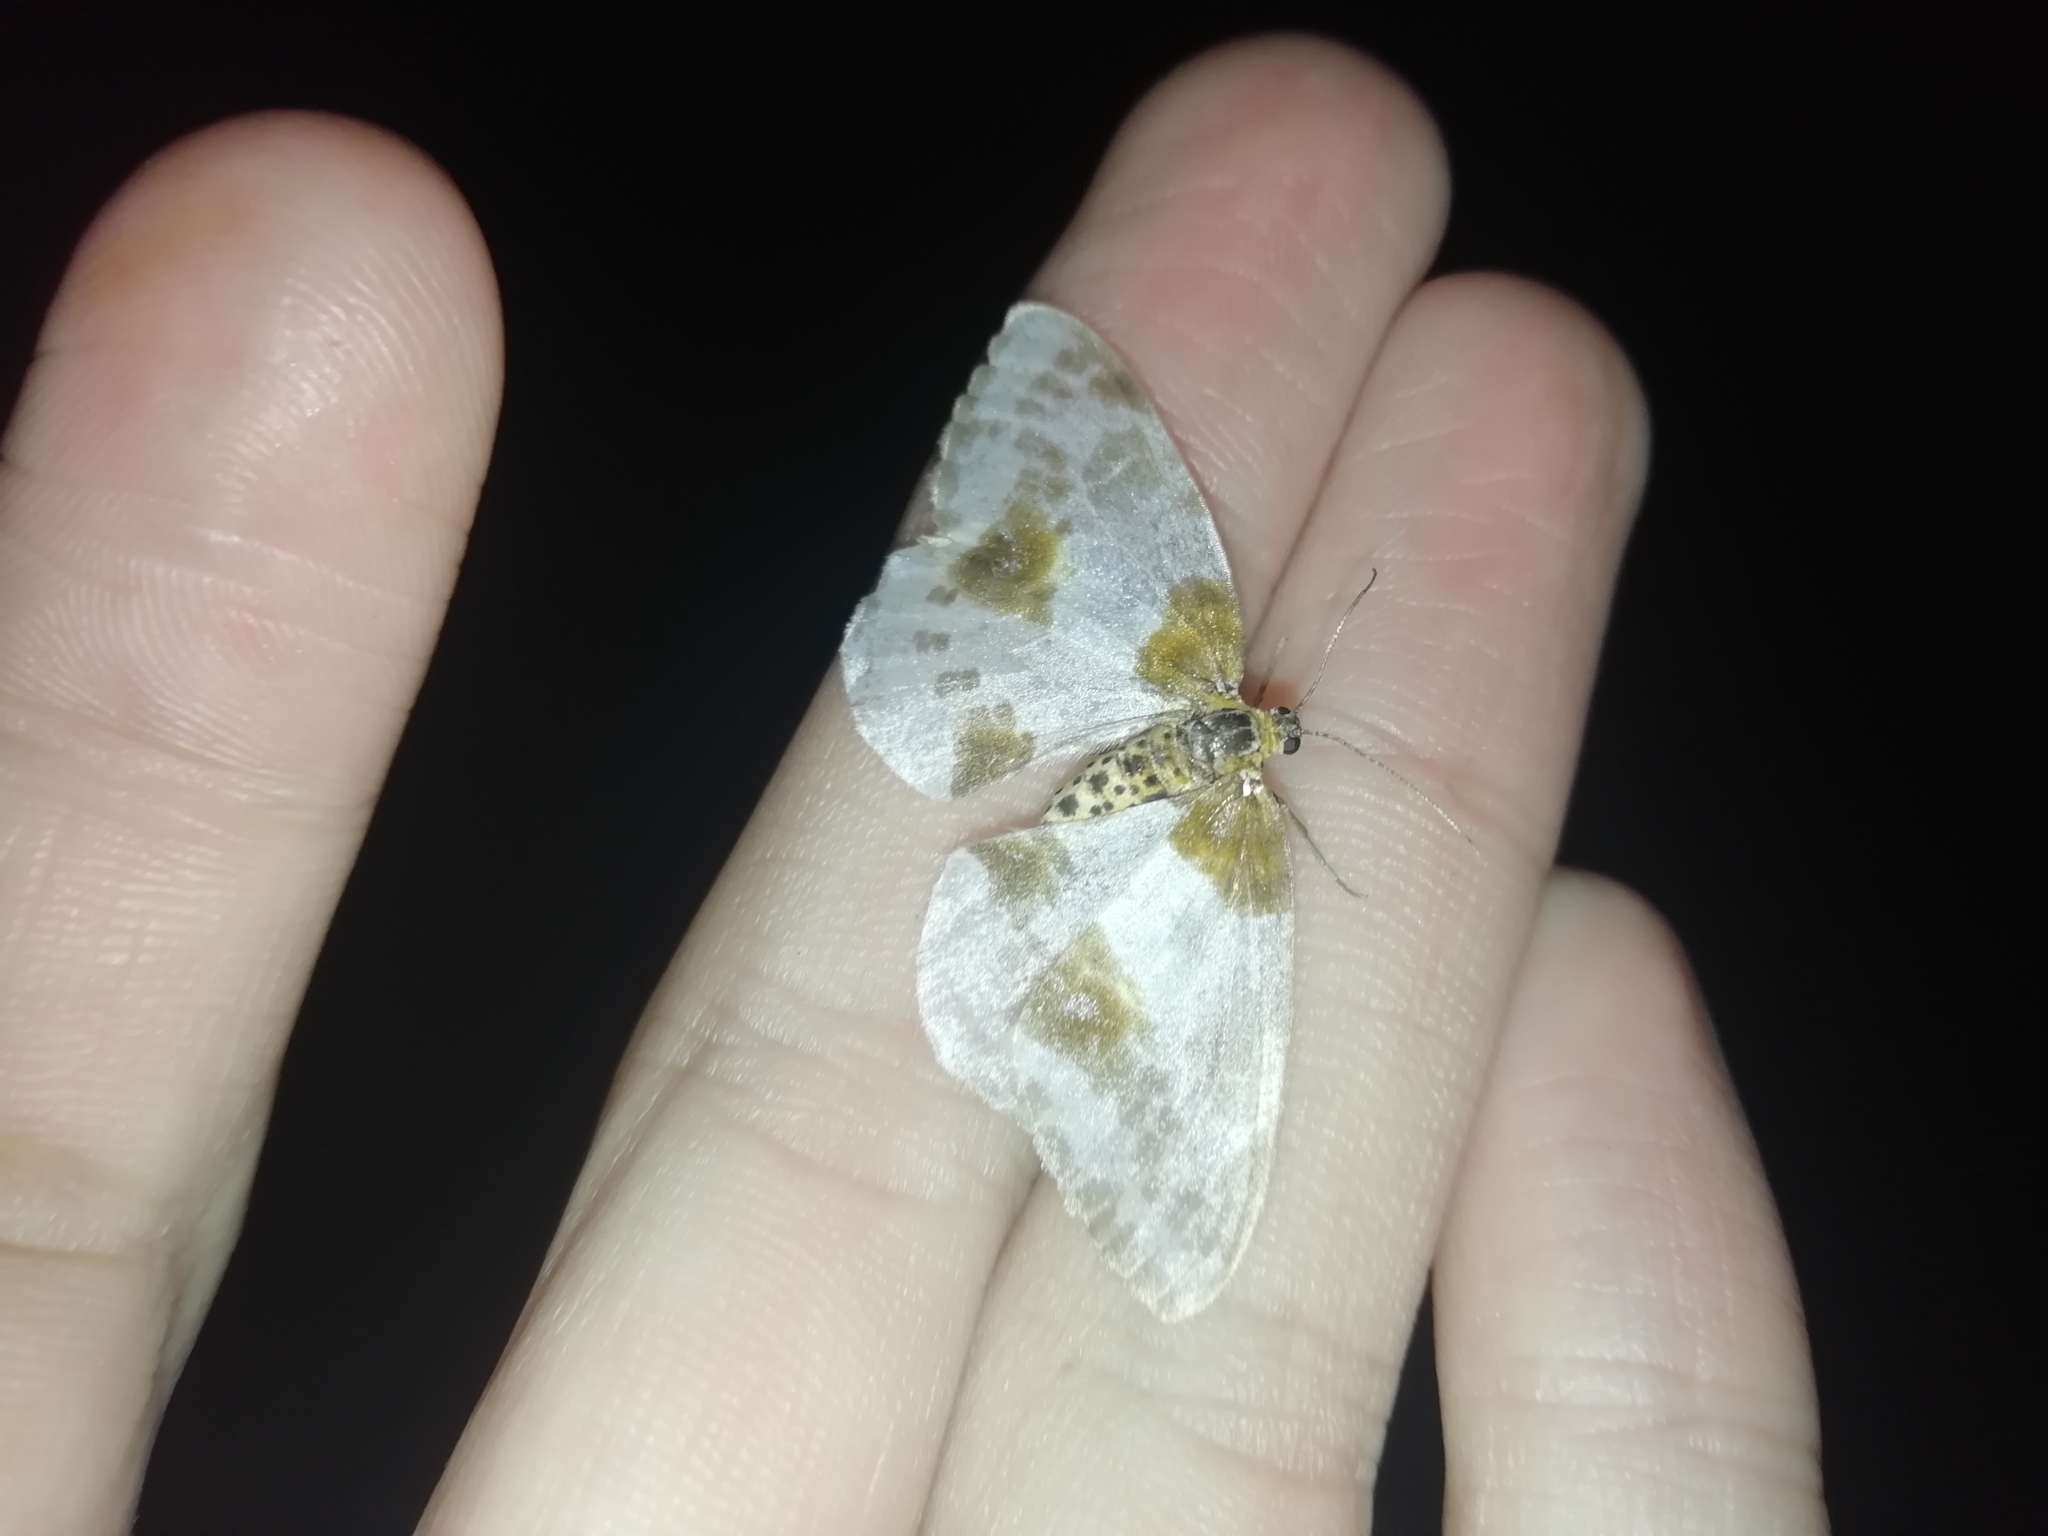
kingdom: Animalia
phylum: Arthropoda
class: Insecta
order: Lepidoptera
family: Geometridae
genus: Abraxas
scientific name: Abraxas sylvata
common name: Clouded magpie
